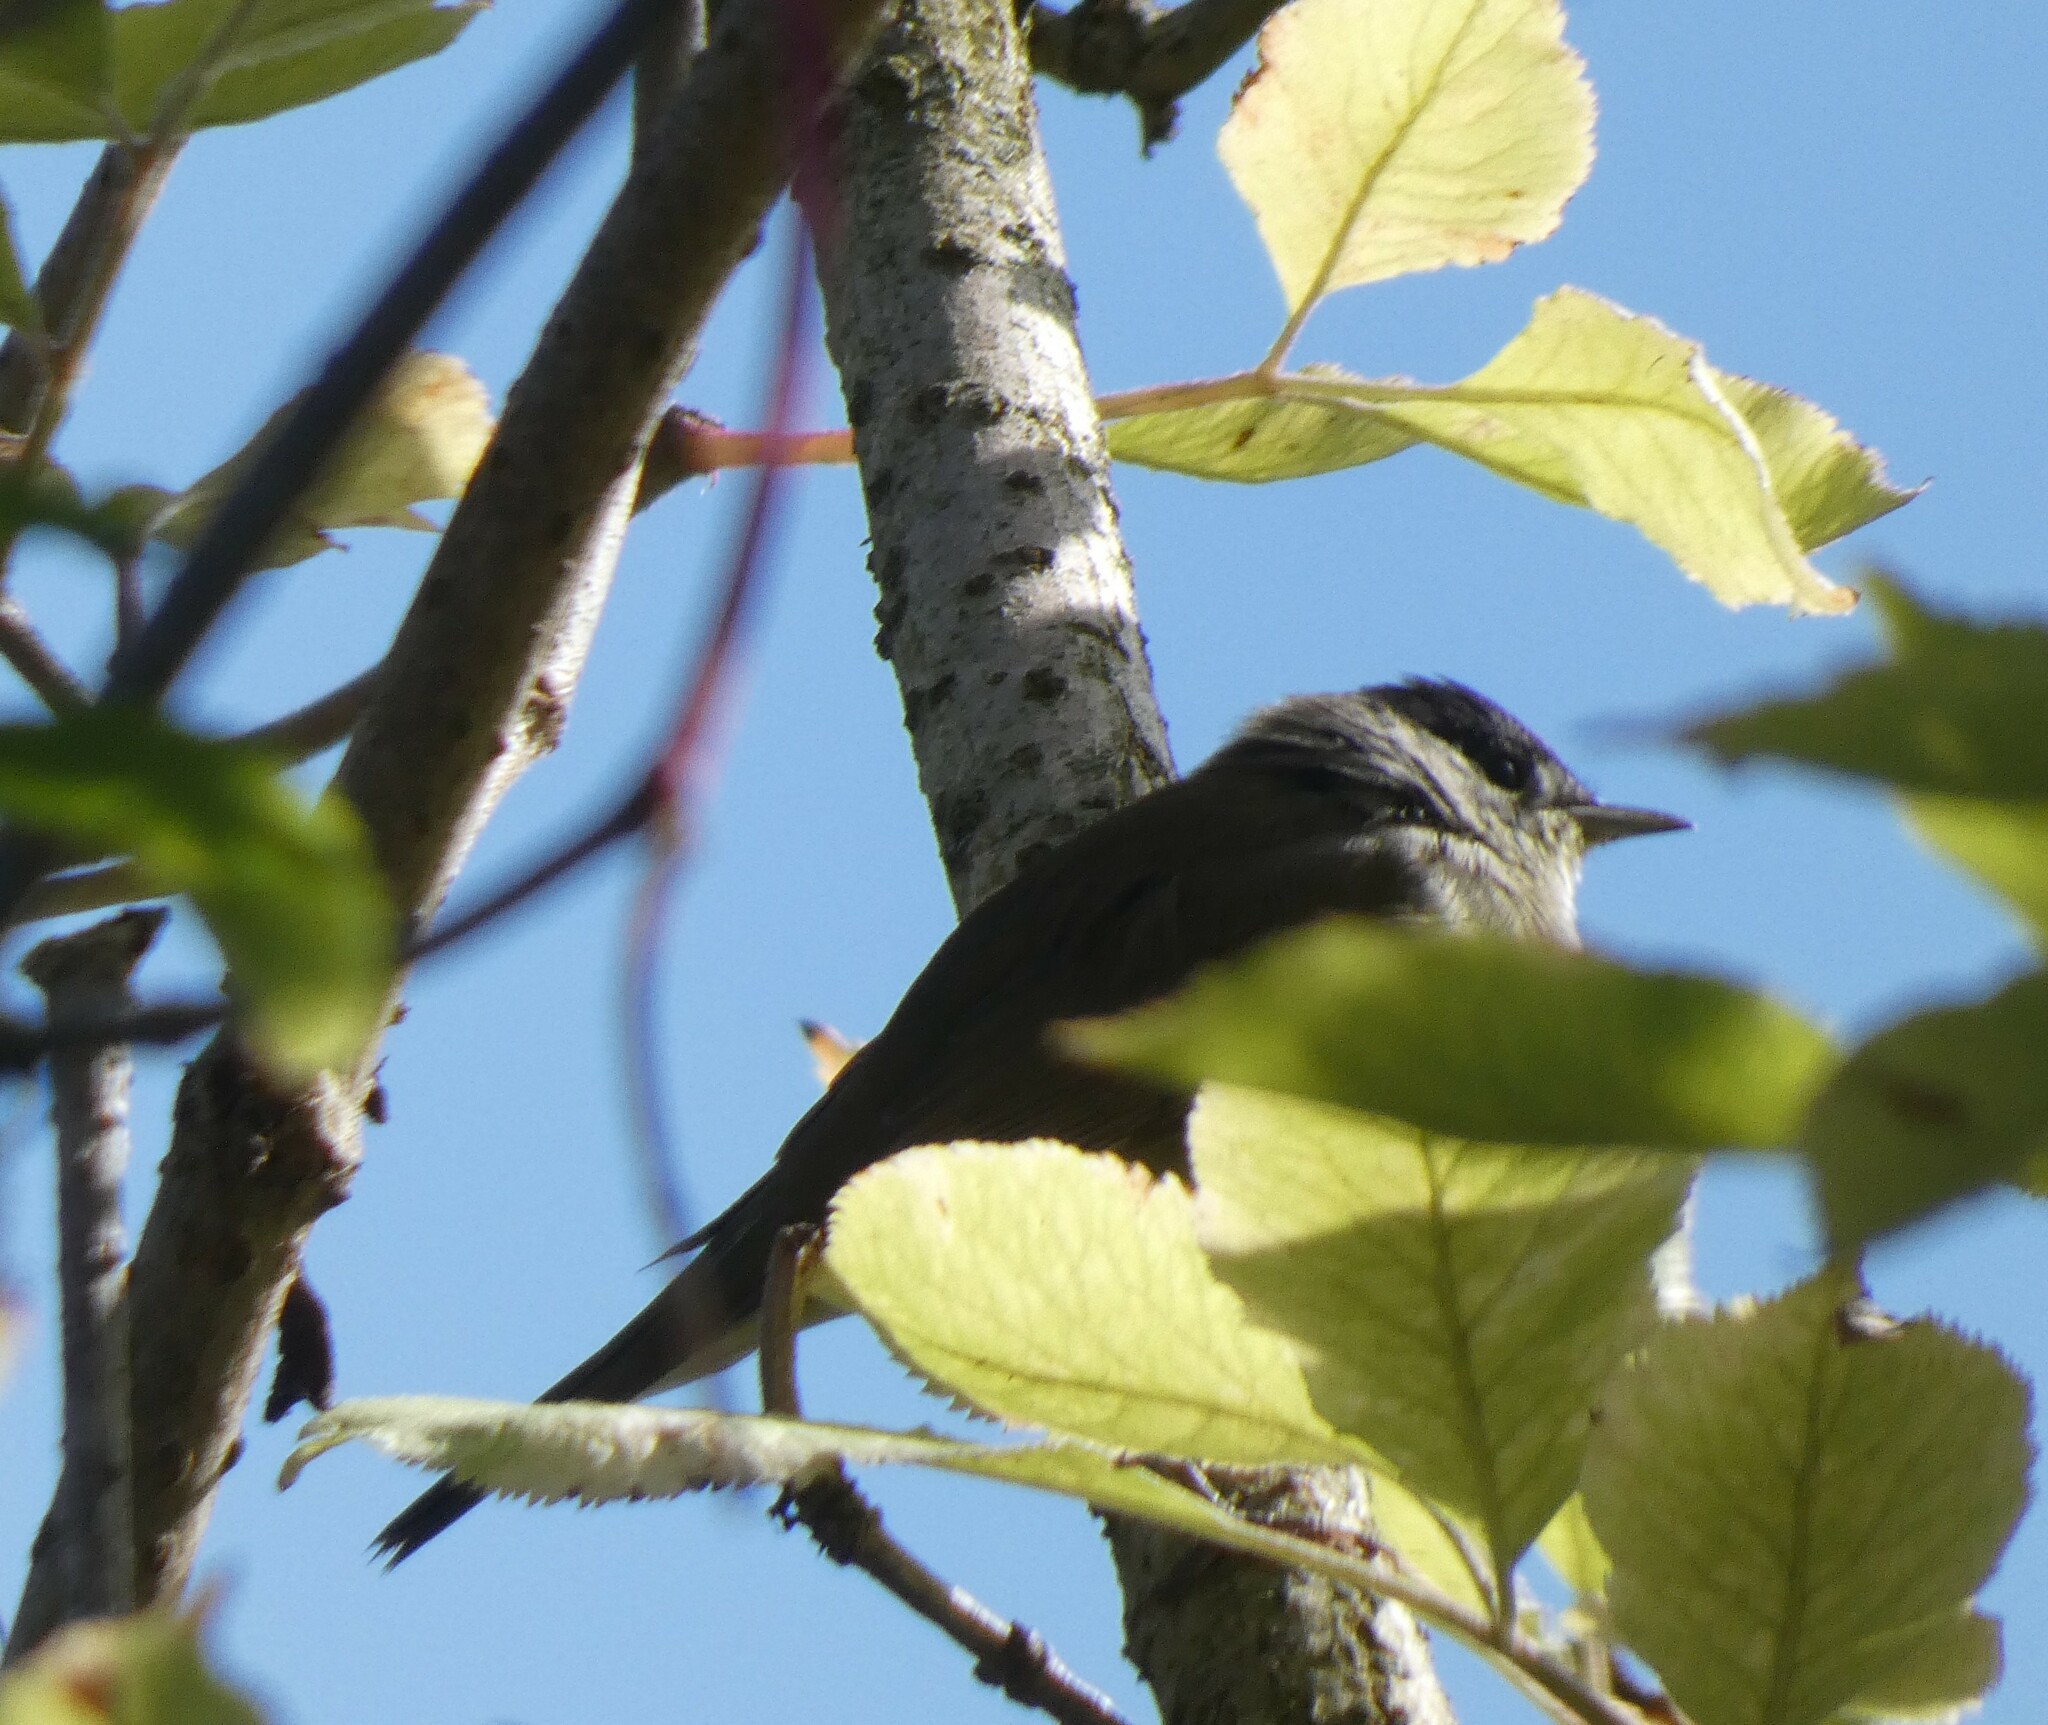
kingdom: Animalia
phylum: Chordata
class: Aves
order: Passeriformes
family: Sylviidae
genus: Sylvia
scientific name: Sylvia atricapilla
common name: Eurasian blackcap
